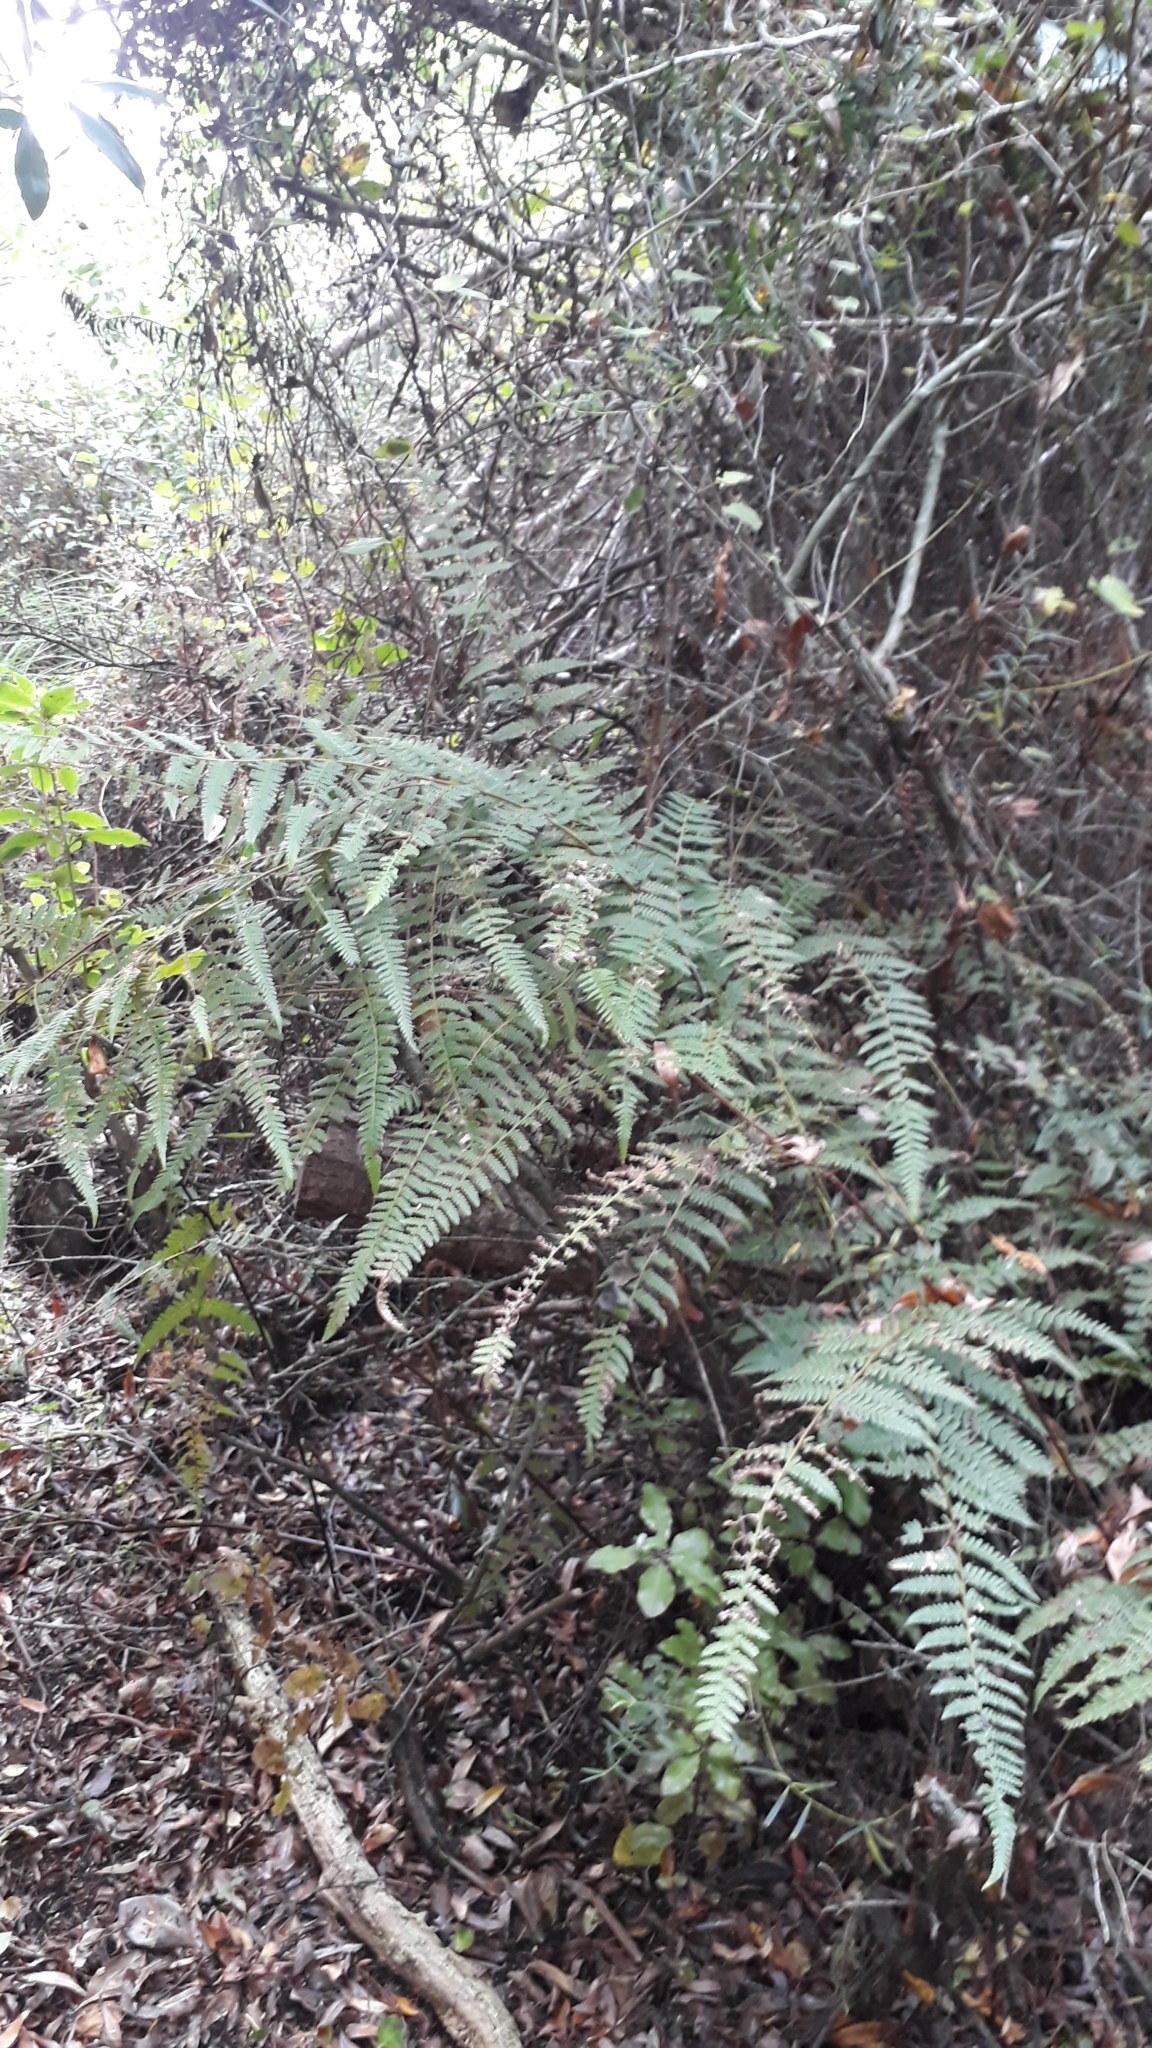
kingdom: Plantae
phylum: Tracheophyta
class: Polypodiopsida
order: Polypodiales
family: Dennstaedtiaceae
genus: Hypolepis
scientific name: Hypolepis ambigua
